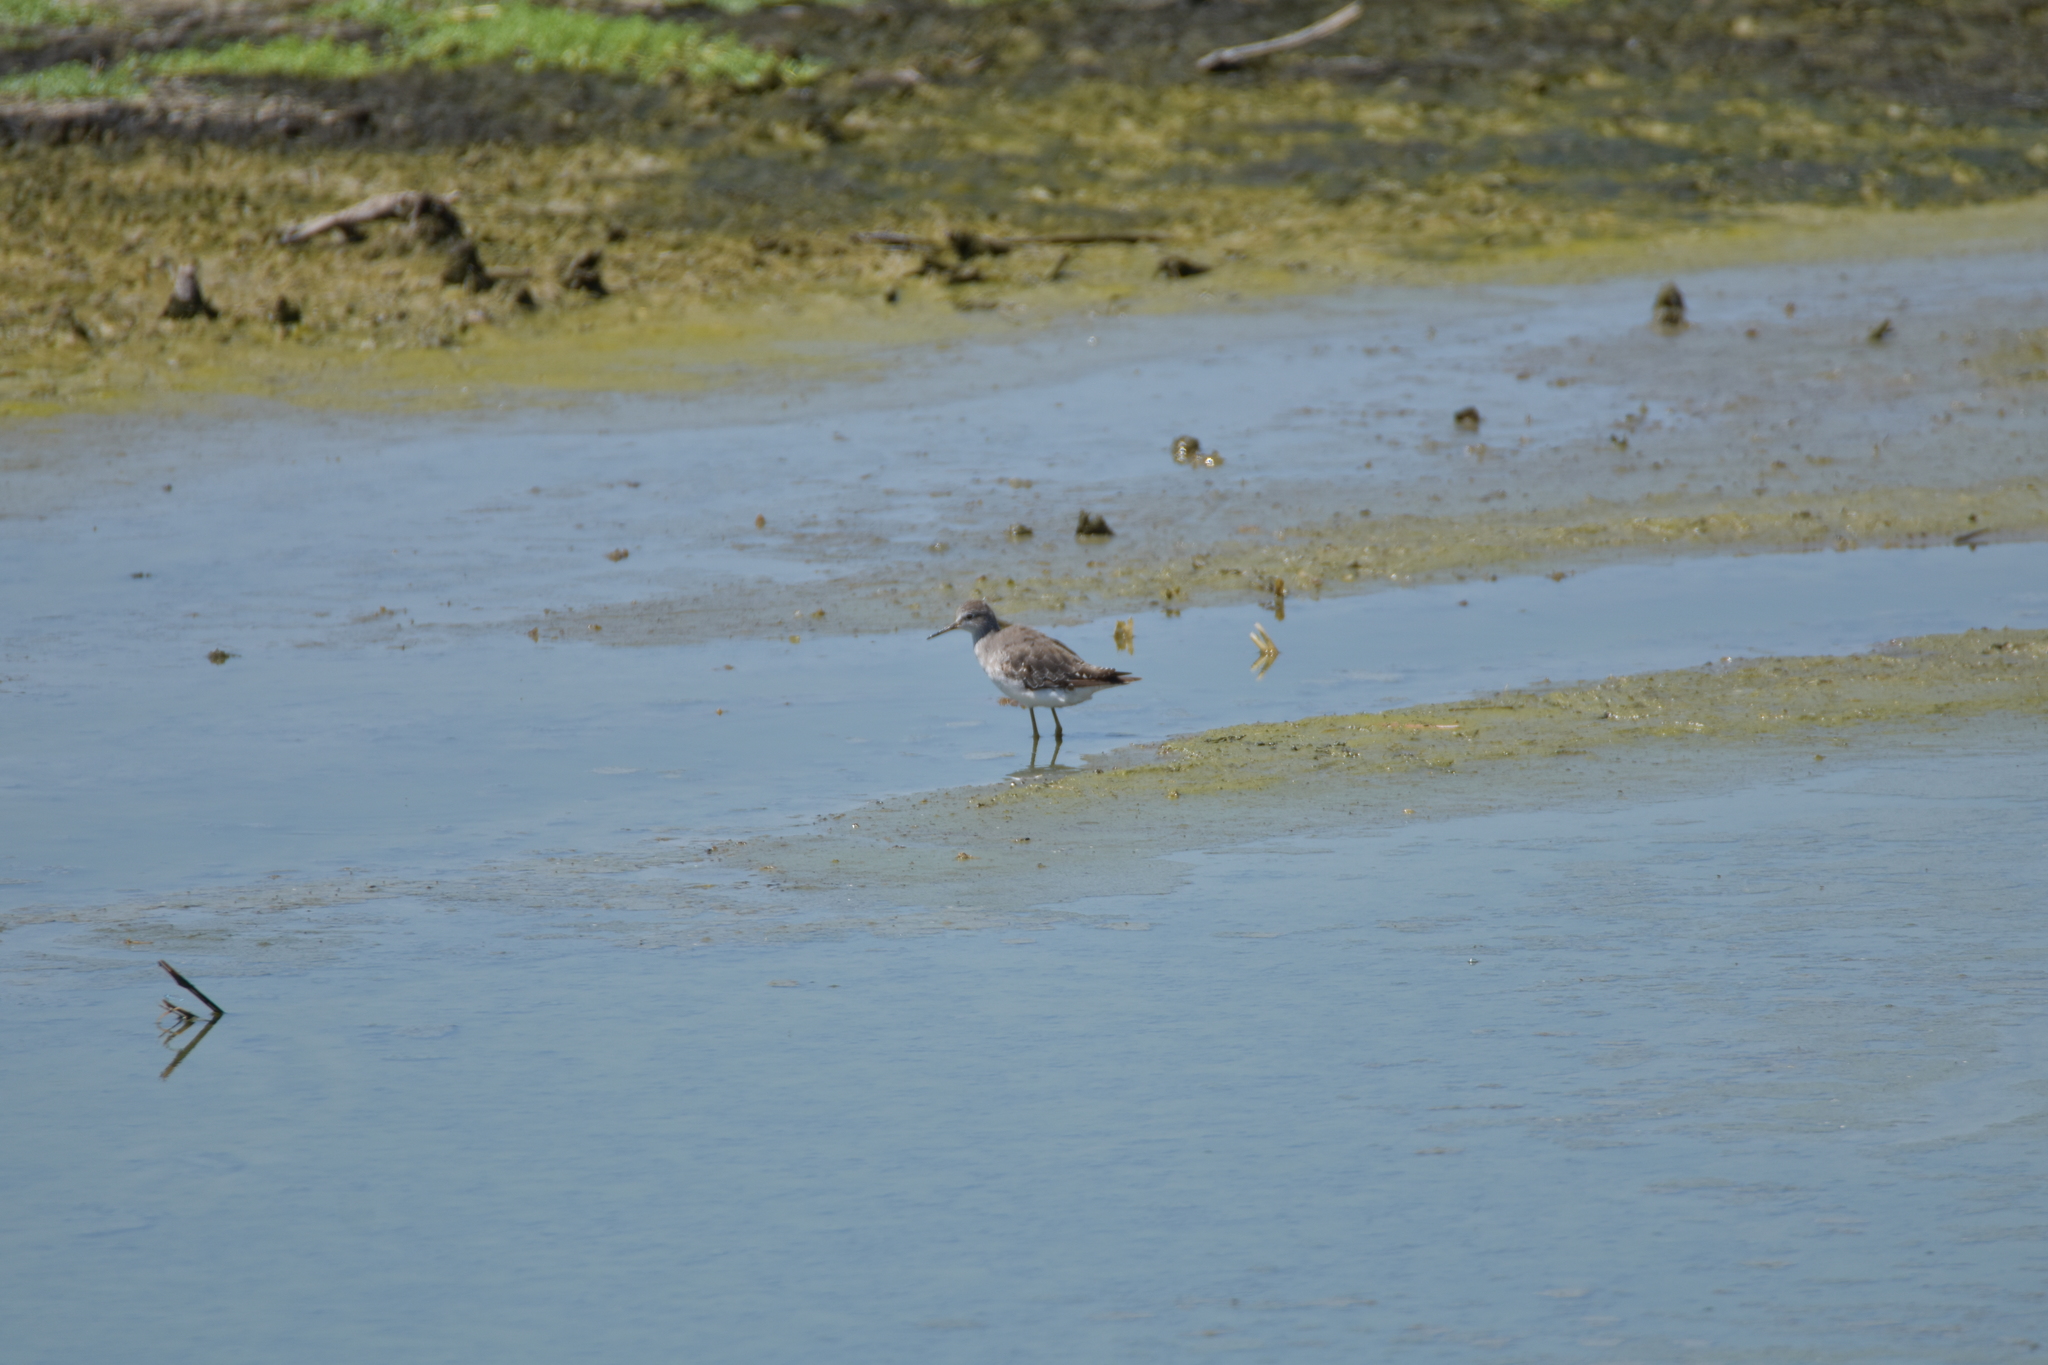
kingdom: Animalia
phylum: Chordata
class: Aves
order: Charadriiformes
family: Scolopacidae
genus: Tringa
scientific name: Tringa solitaria
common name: Solitary sandpiper
